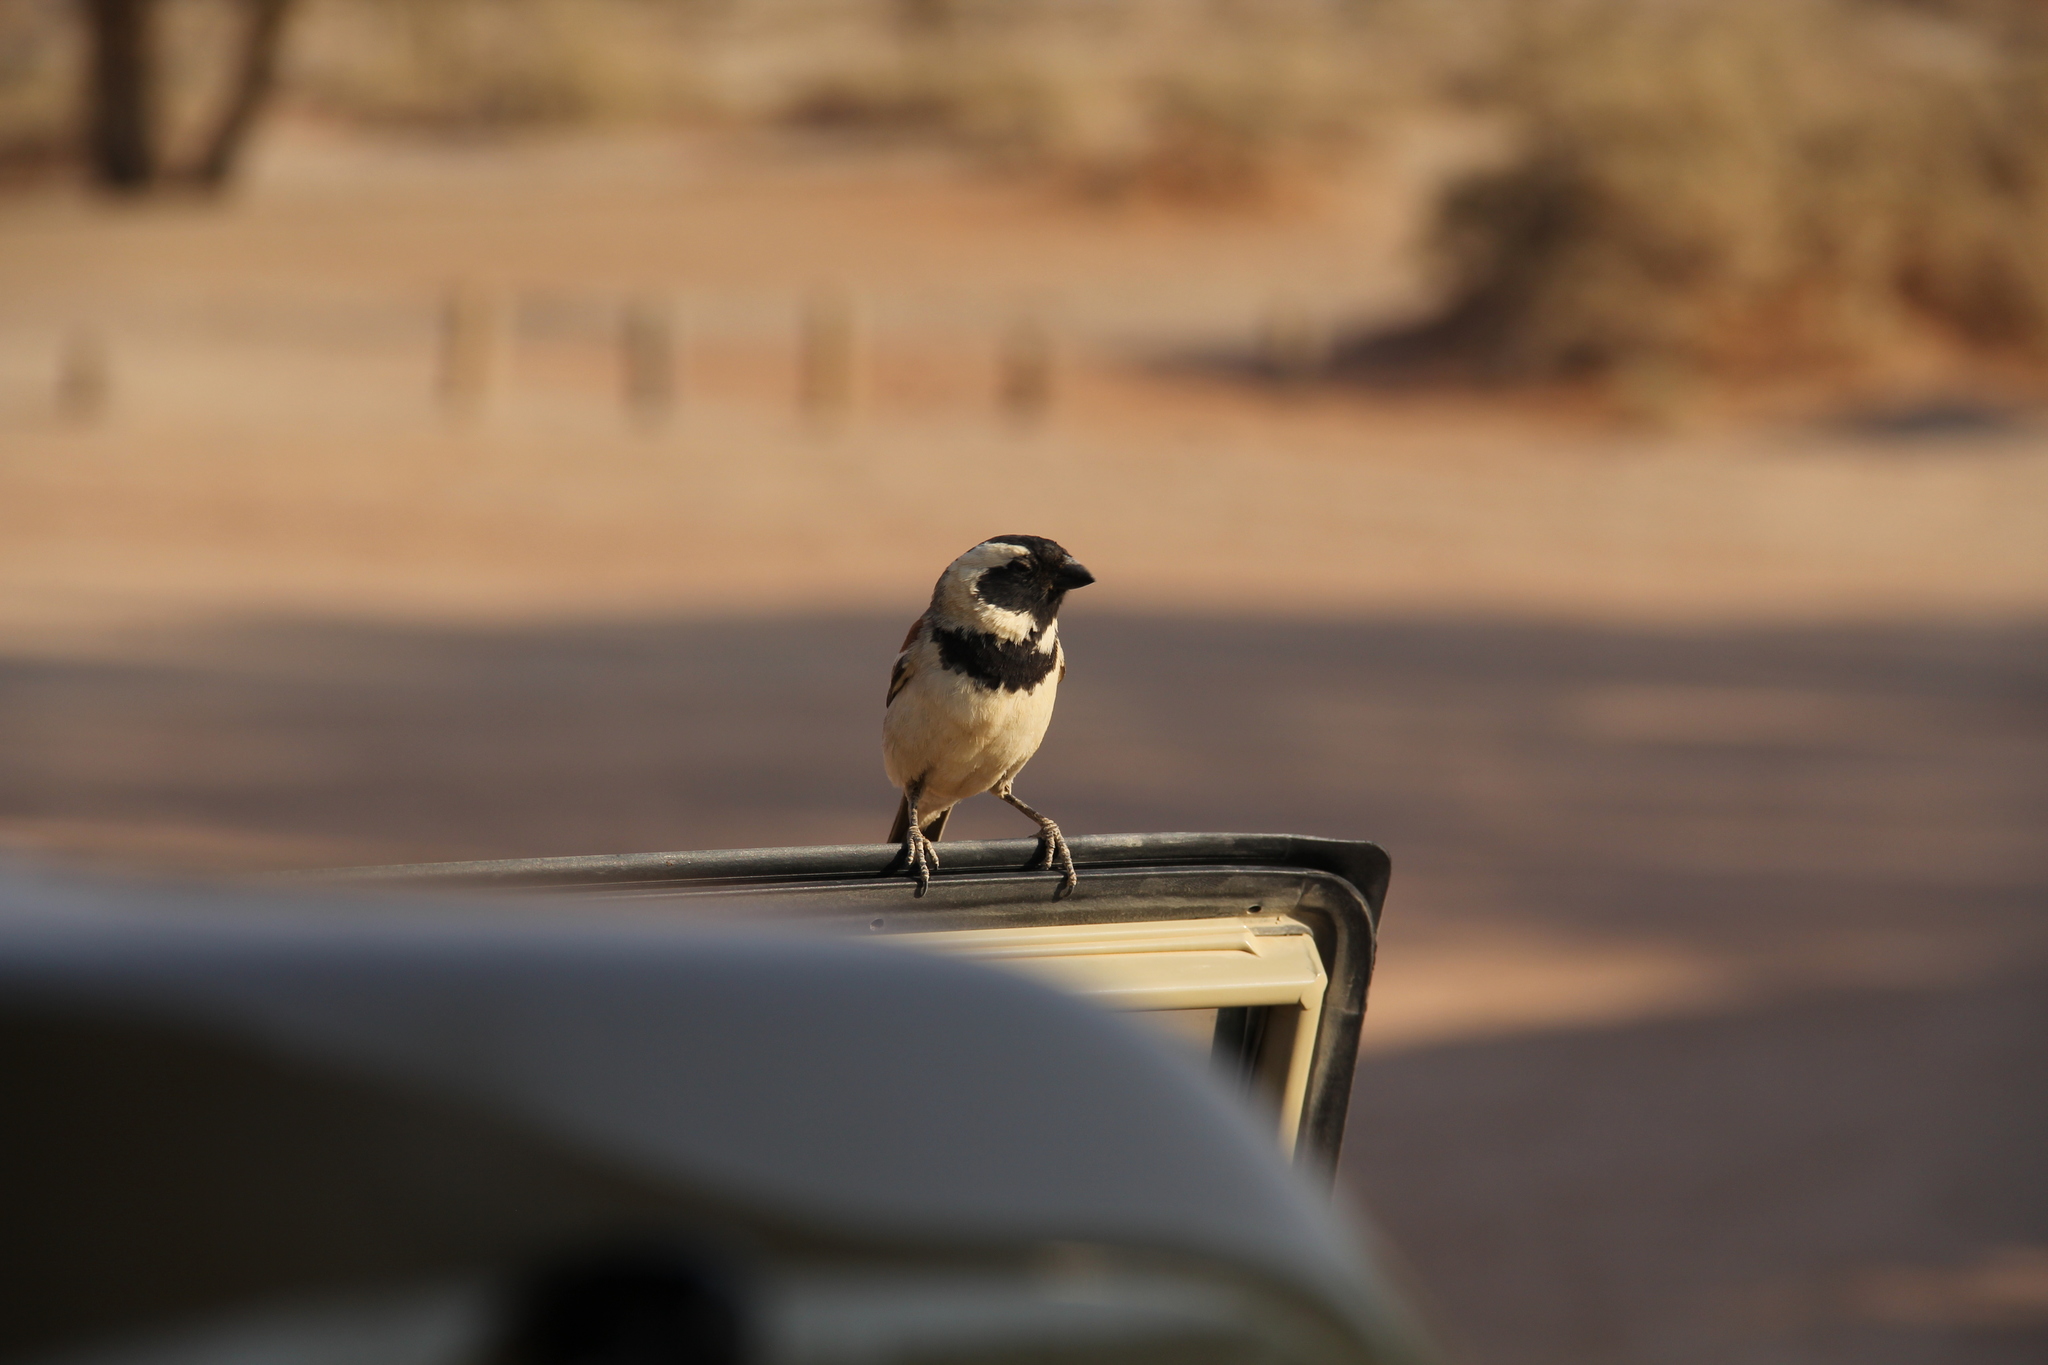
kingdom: Animalia
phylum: Chordata
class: Aves
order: Passeriformes
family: Passeridae
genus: Passer
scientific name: Passer melanurus
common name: Cape sparrow
